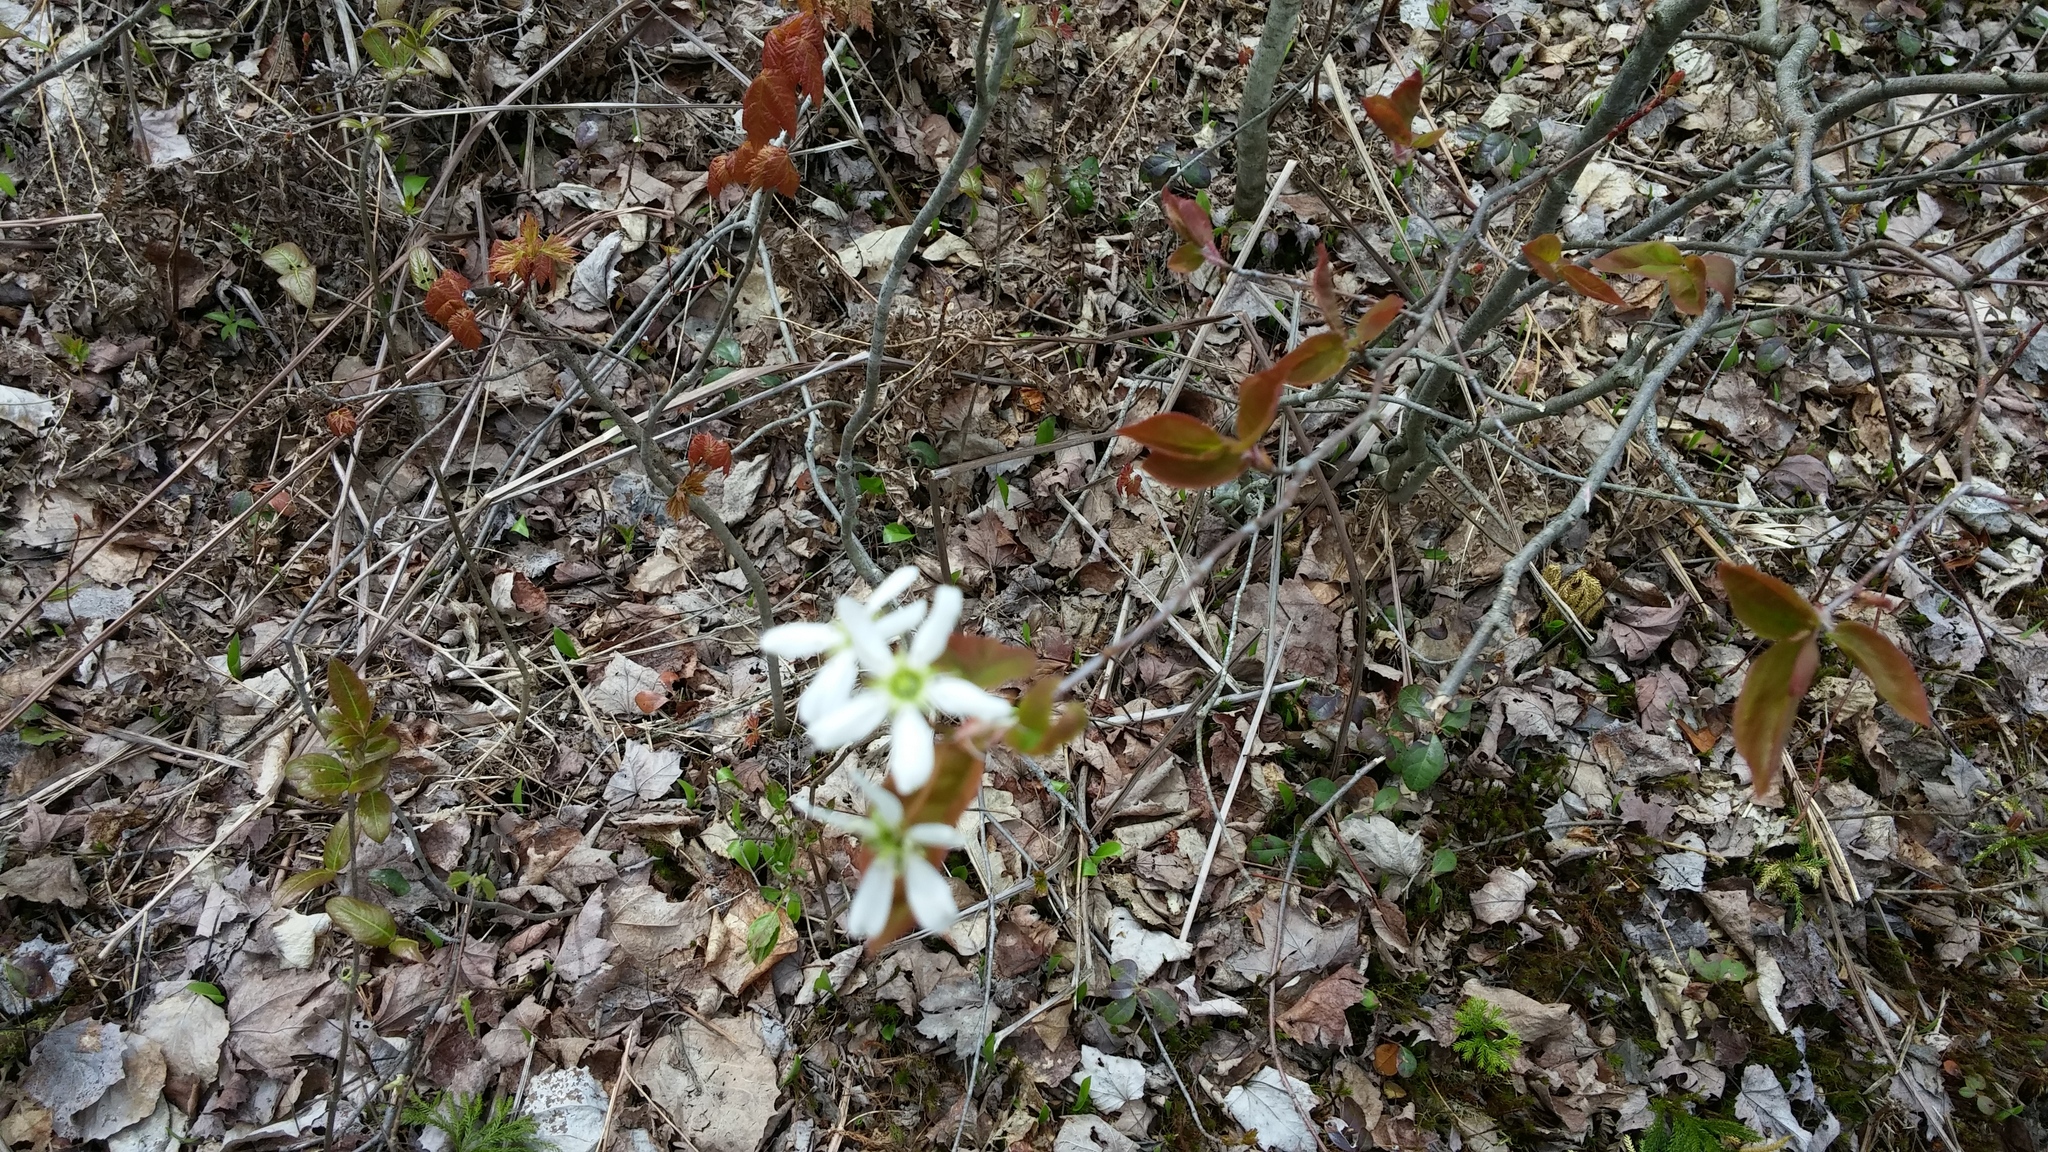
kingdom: Plantae
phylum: Tracheophyta
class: Magnoliopsida
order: Rosales
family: Rosaceae
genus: Amelanchier
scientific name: Amelanchier laevis
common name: Allegheny serviceberry
